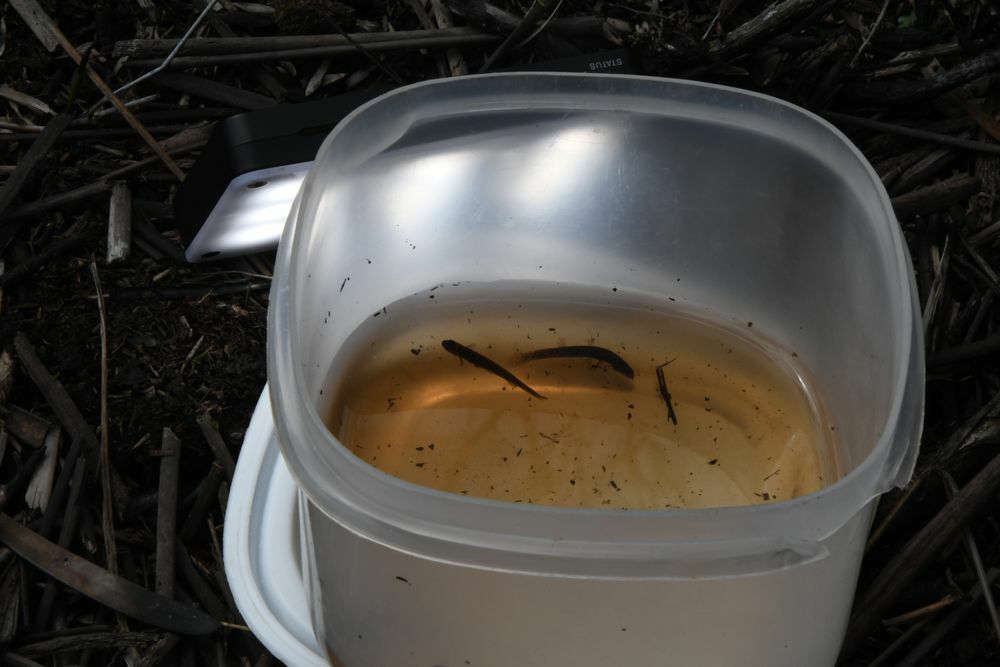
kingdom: Animalia
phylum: Chordata
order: Osmeriformes
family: Lepidogalaxiidae
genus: Lepidogalaxias
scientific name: Lepidogalaxias salamandroides
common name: Salamanderfish
